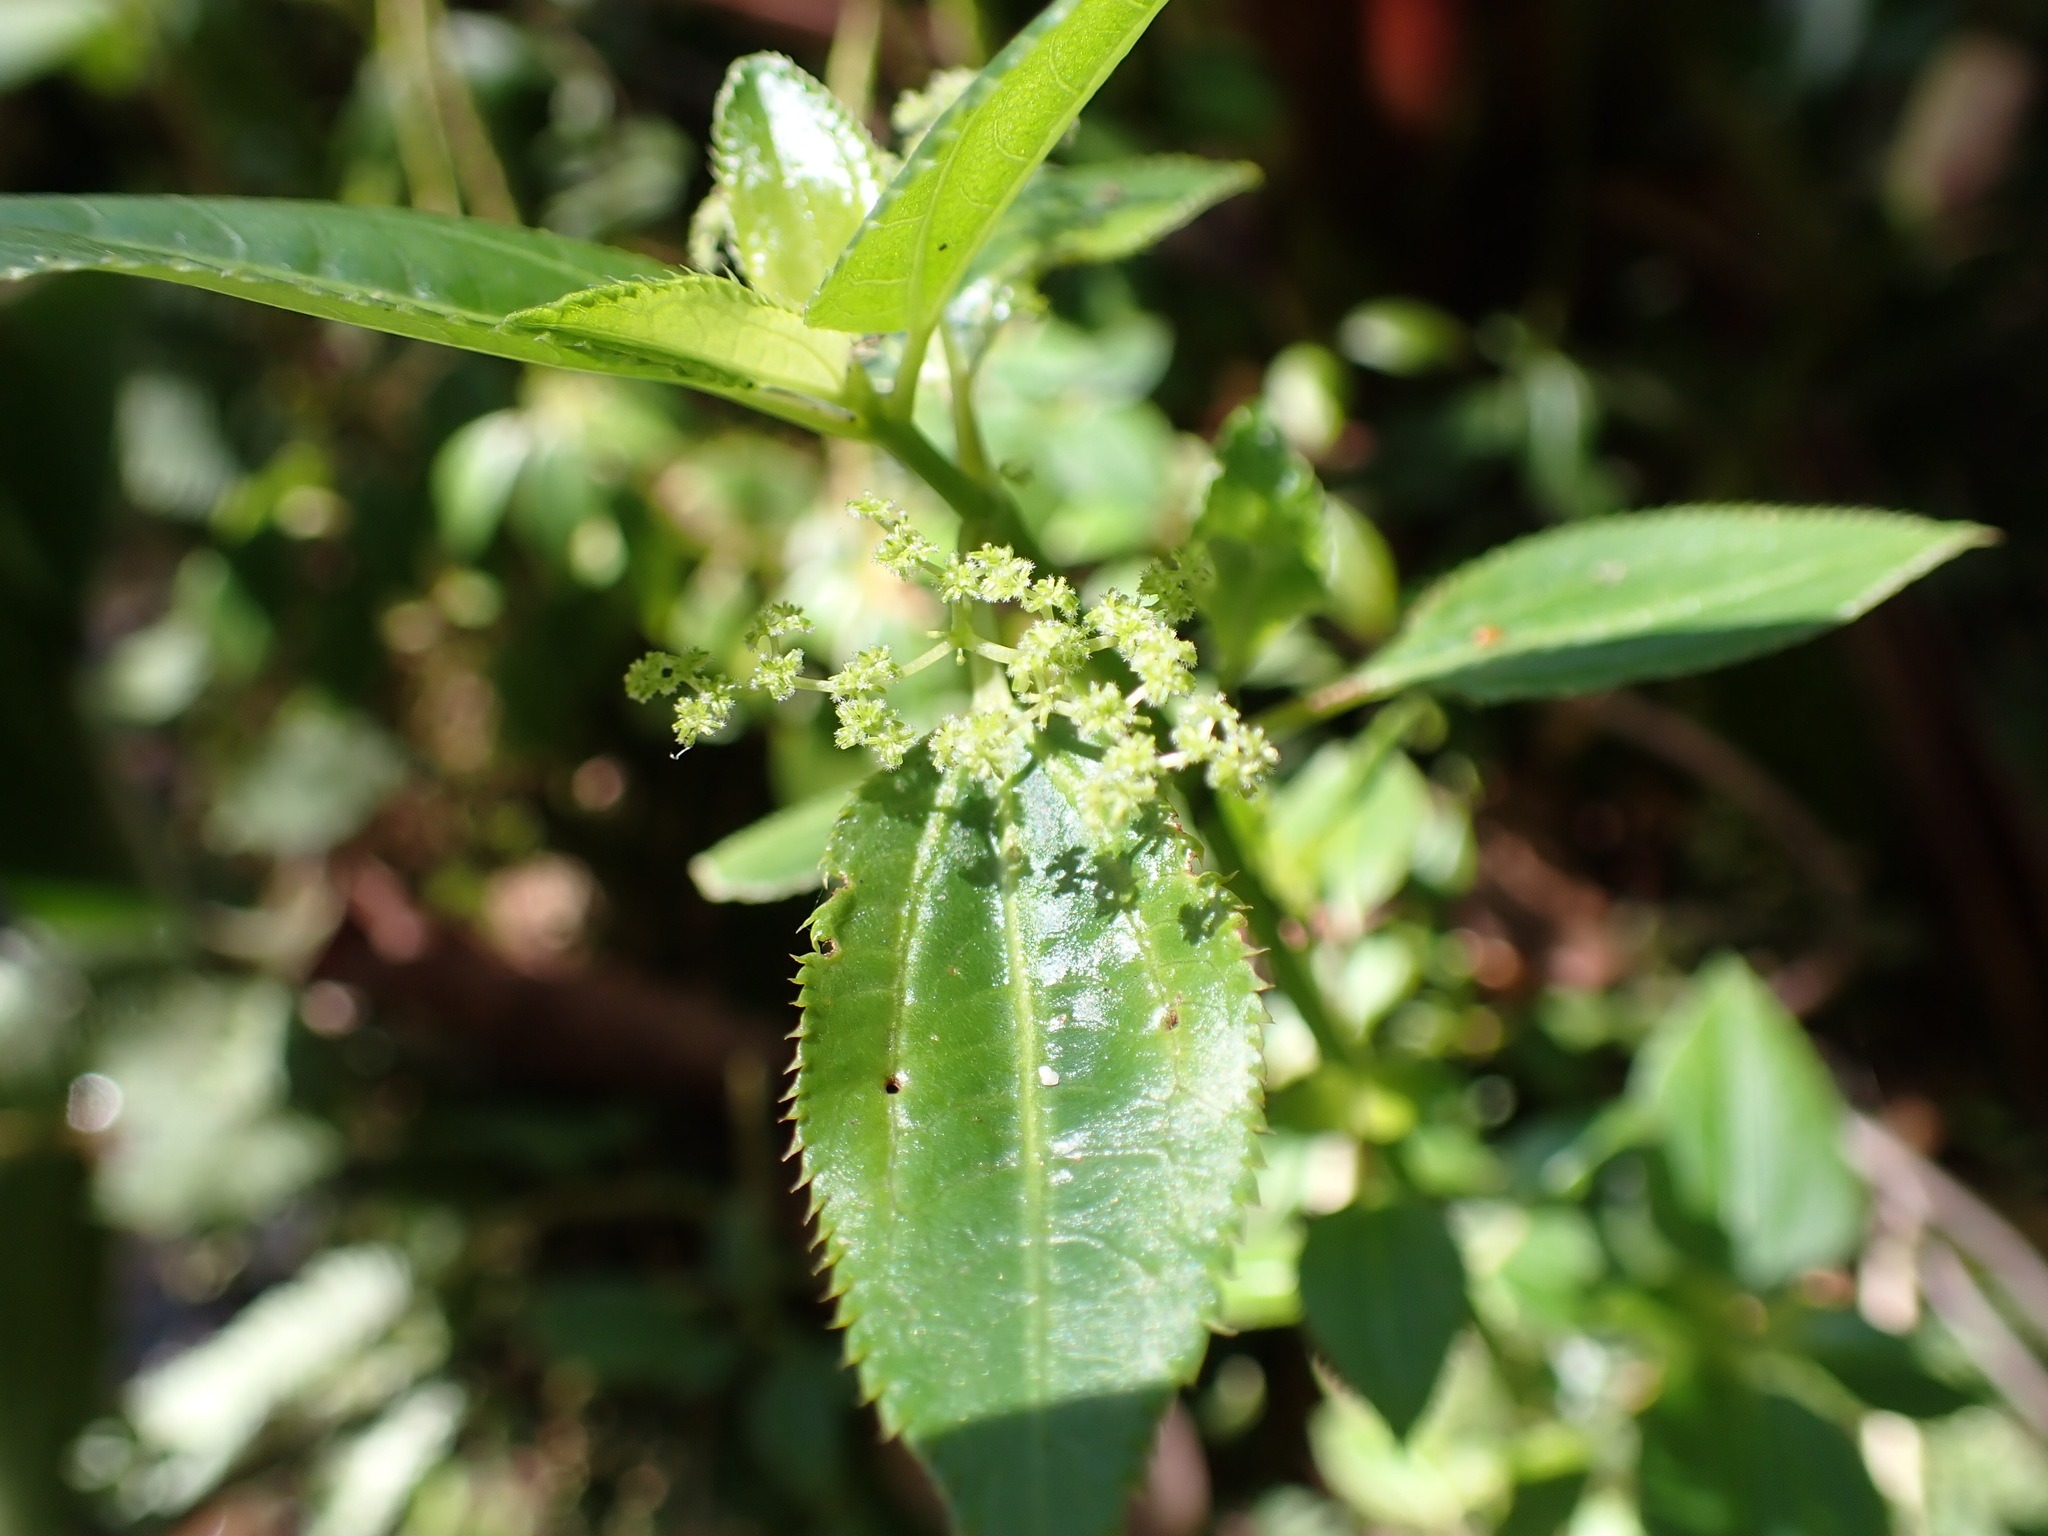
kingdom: Plantae
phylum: Tracheophyta
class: Magnoliopsida
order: Rosales
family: Urticaceae
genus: Pilea
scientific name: Pilea nutans
